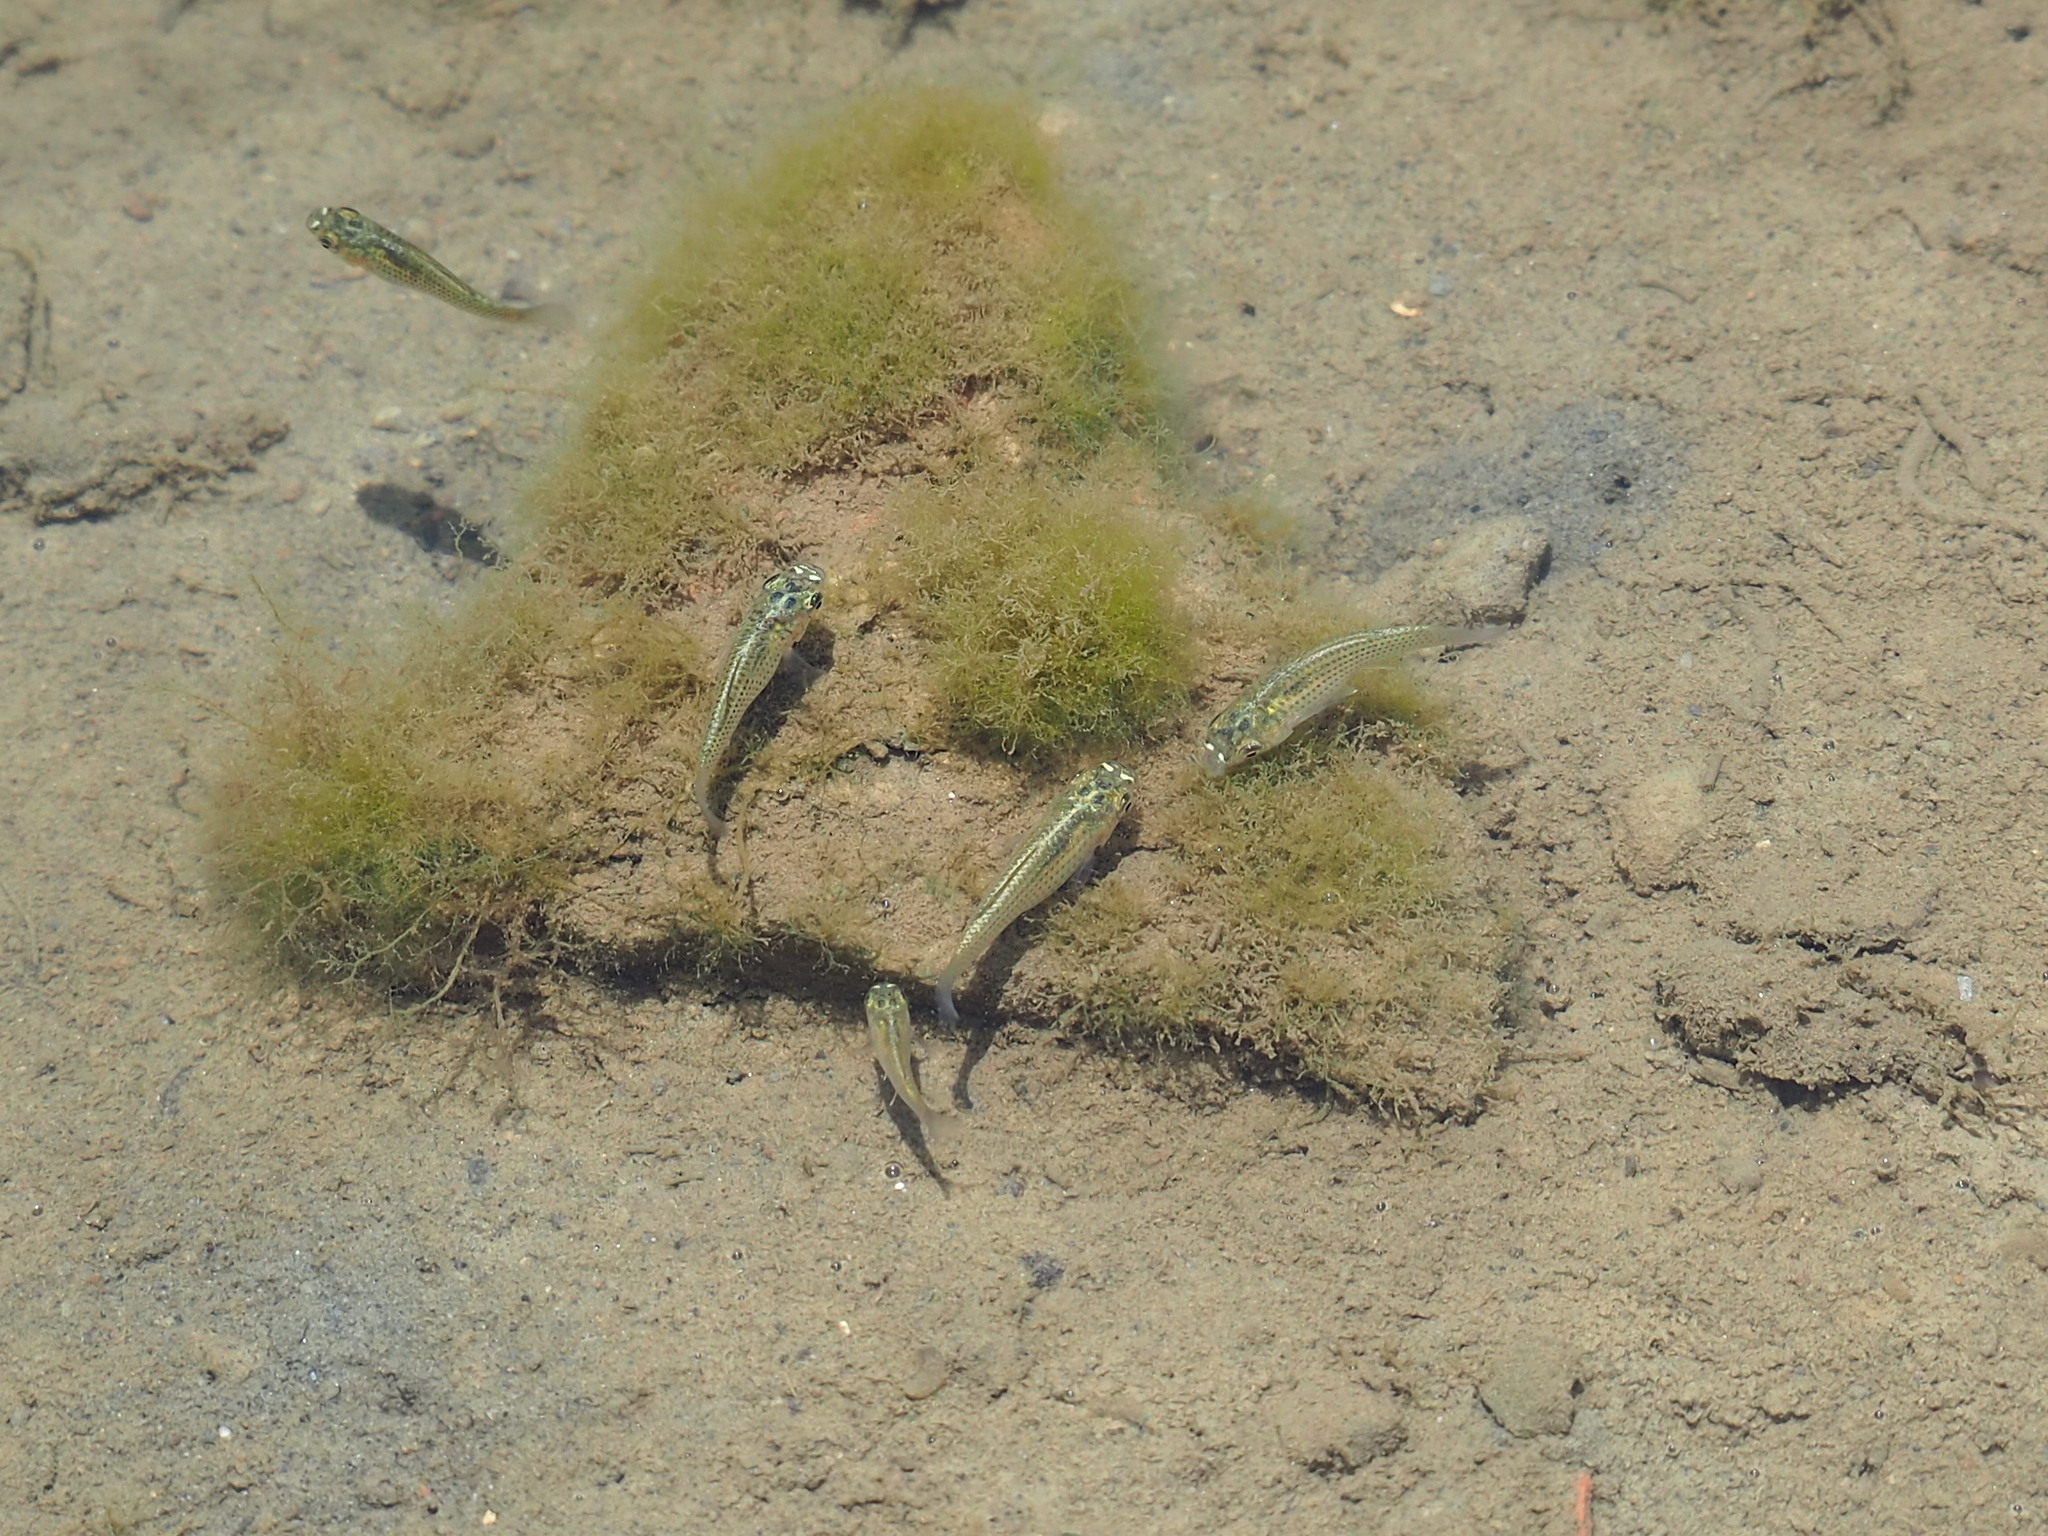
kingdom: Animalia
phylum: Chordata
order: Cyprinodontiformes
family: Poeciliidae
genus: Poecilia
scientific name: Poecilia velifera
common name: Sail-fin molly
